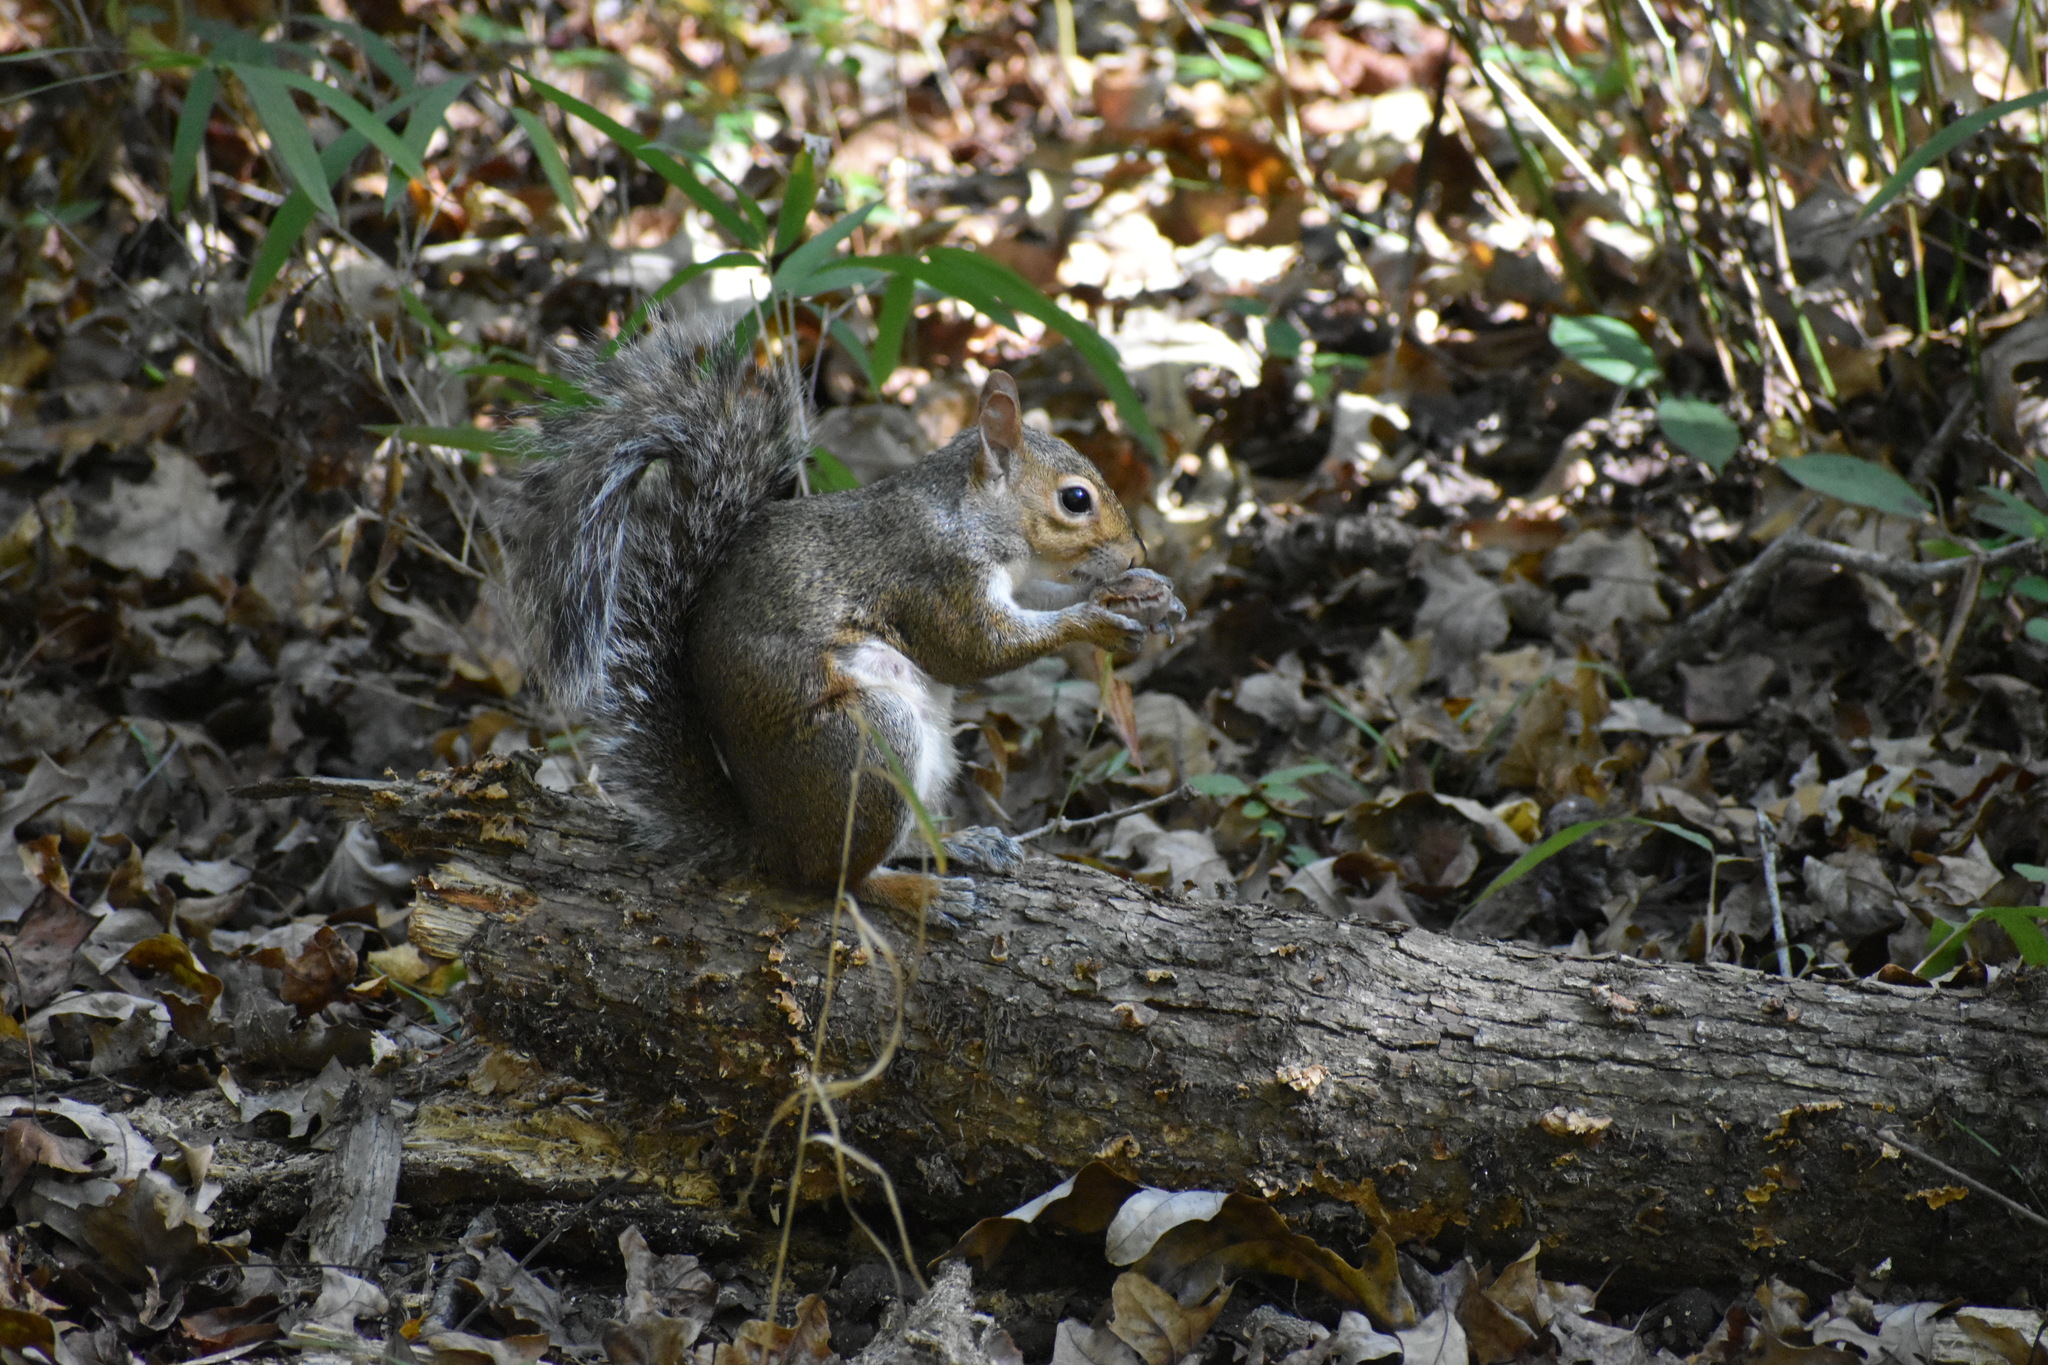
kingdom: Animalia
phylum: Chordata
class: Mammalia
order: Rodentia
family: Sciuridae
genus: Sciurus
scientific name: Sciurus carolinensis
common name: Eastern gray squirrel
